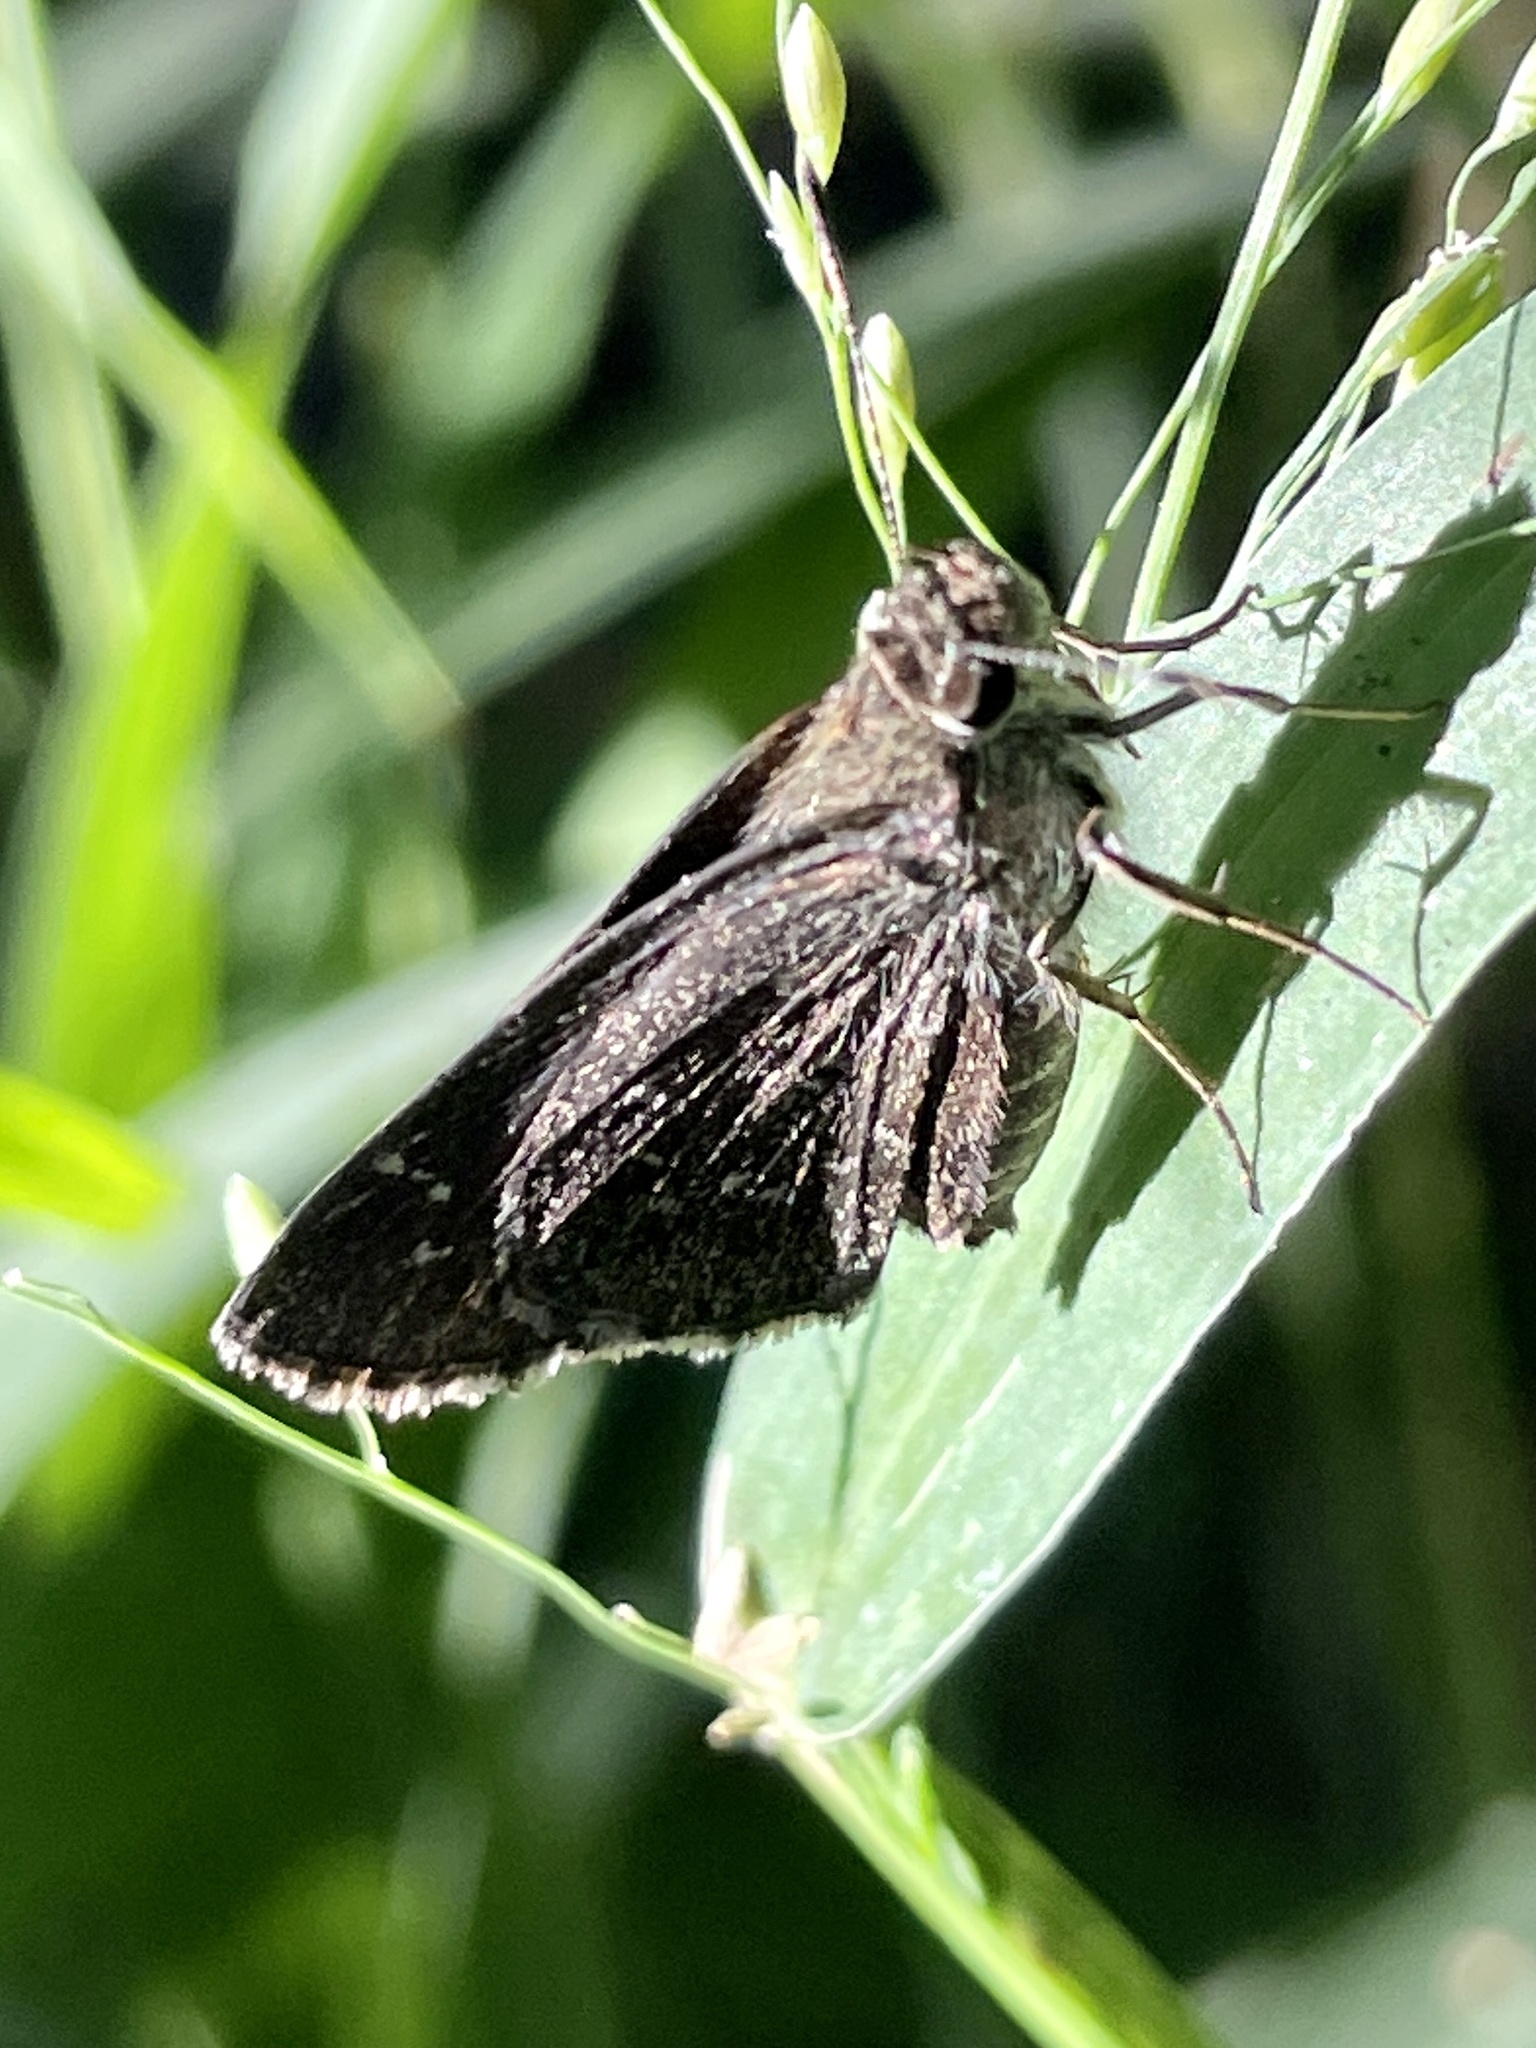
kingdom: Animalia
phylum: Arthropoda
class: Insecta
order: Lepidoptera
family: Hesperiidae
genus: Mastor
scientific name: Mastor celia
